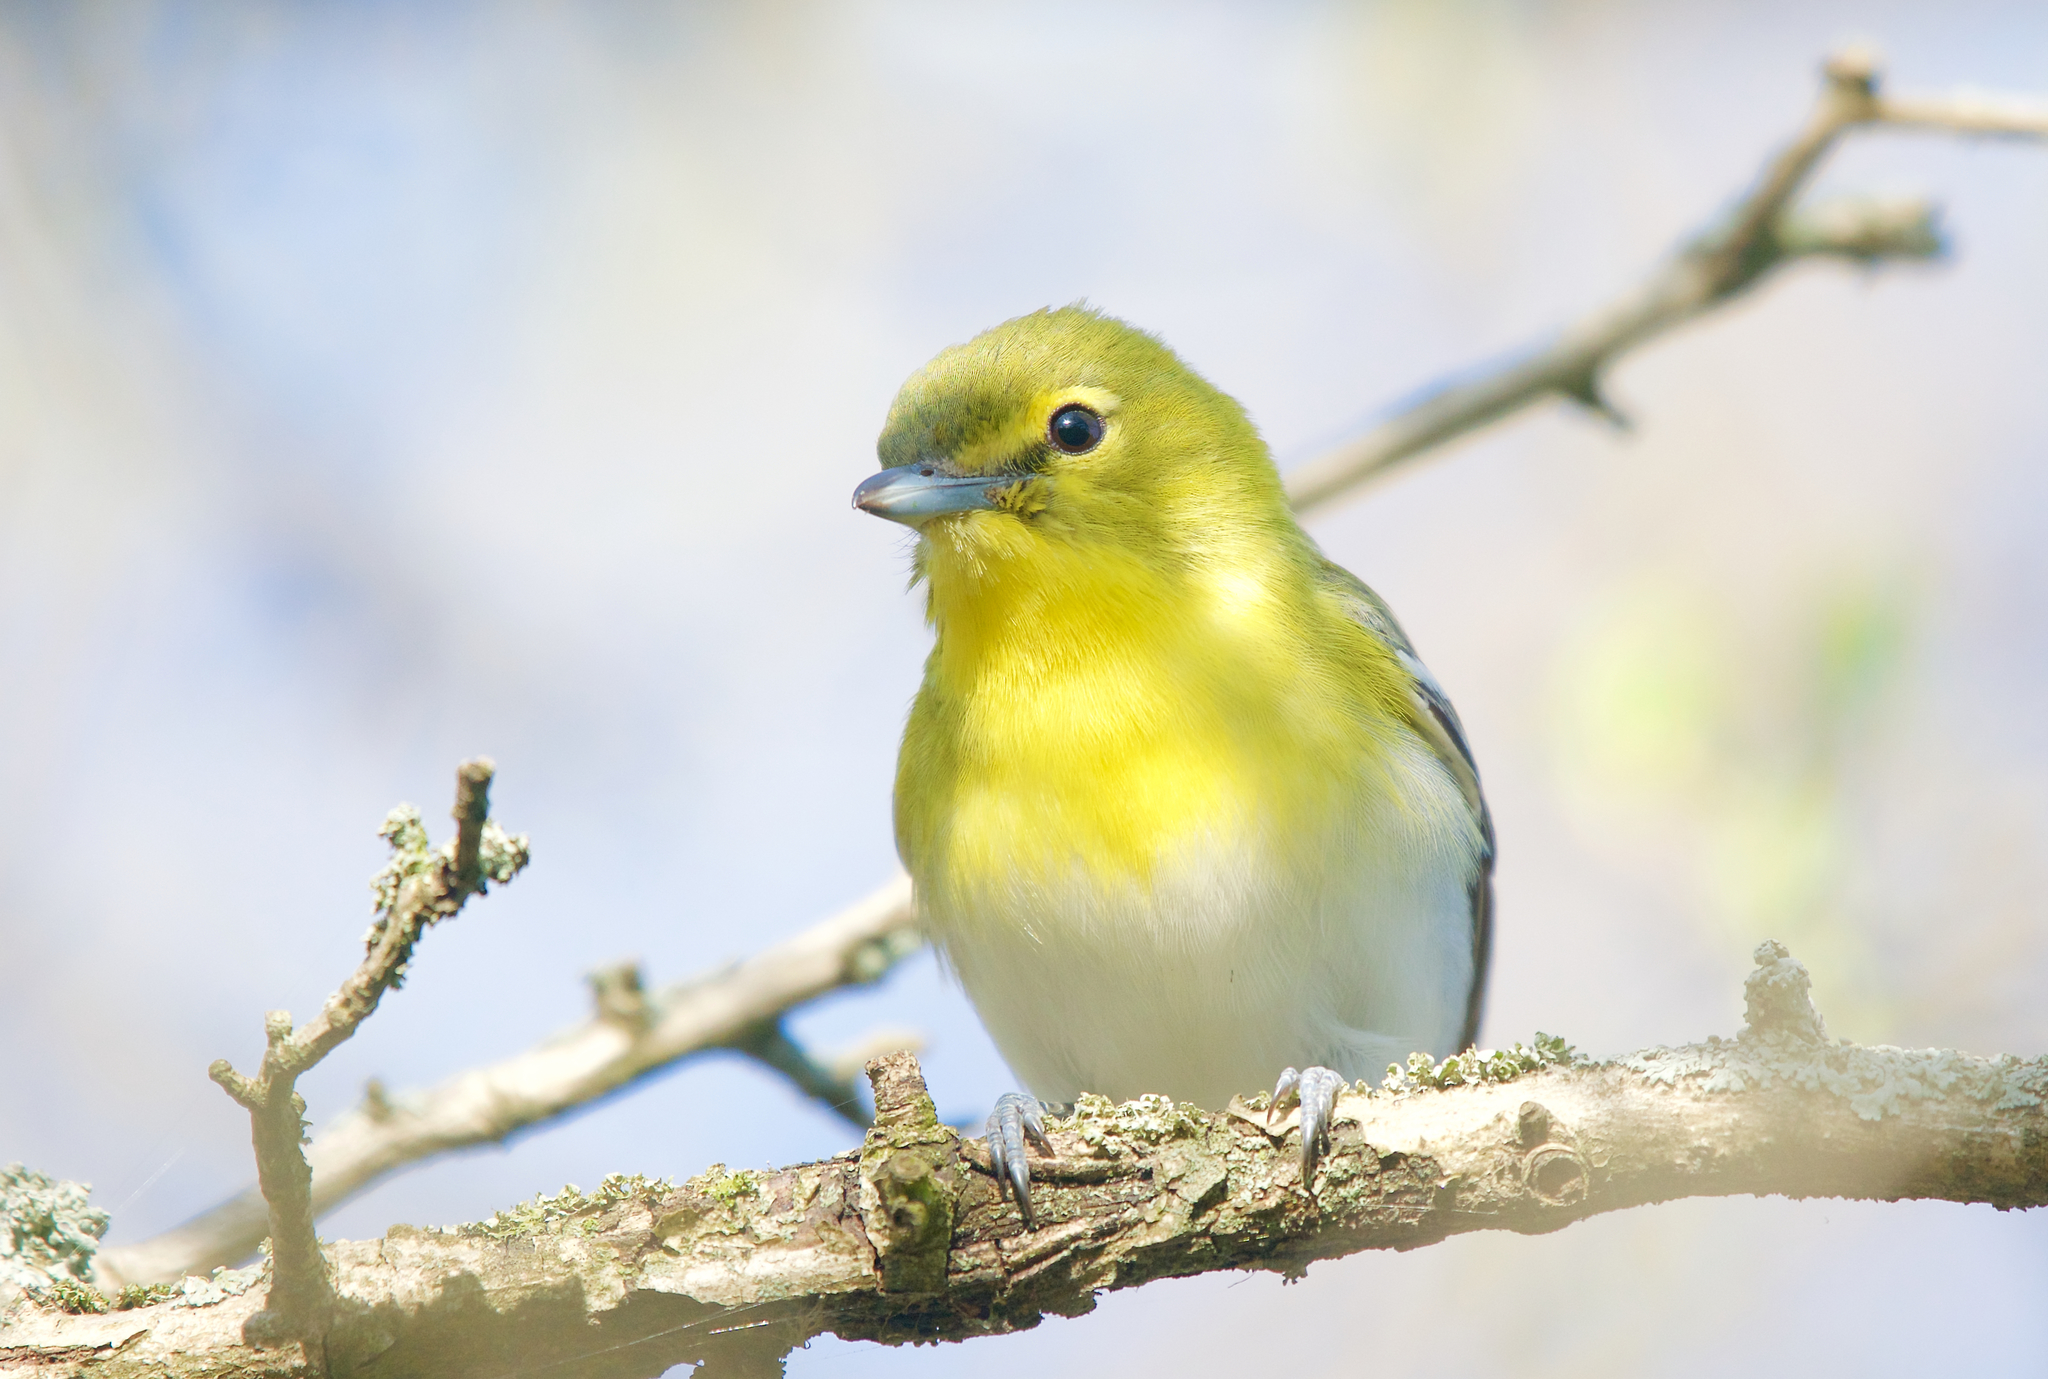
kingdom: Animalia
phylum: Chordata
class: Aves
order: Passeriformes
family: Vireonidae
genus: Vireo
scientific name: Vireo flavifrons
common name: Yellow-throated vireo
